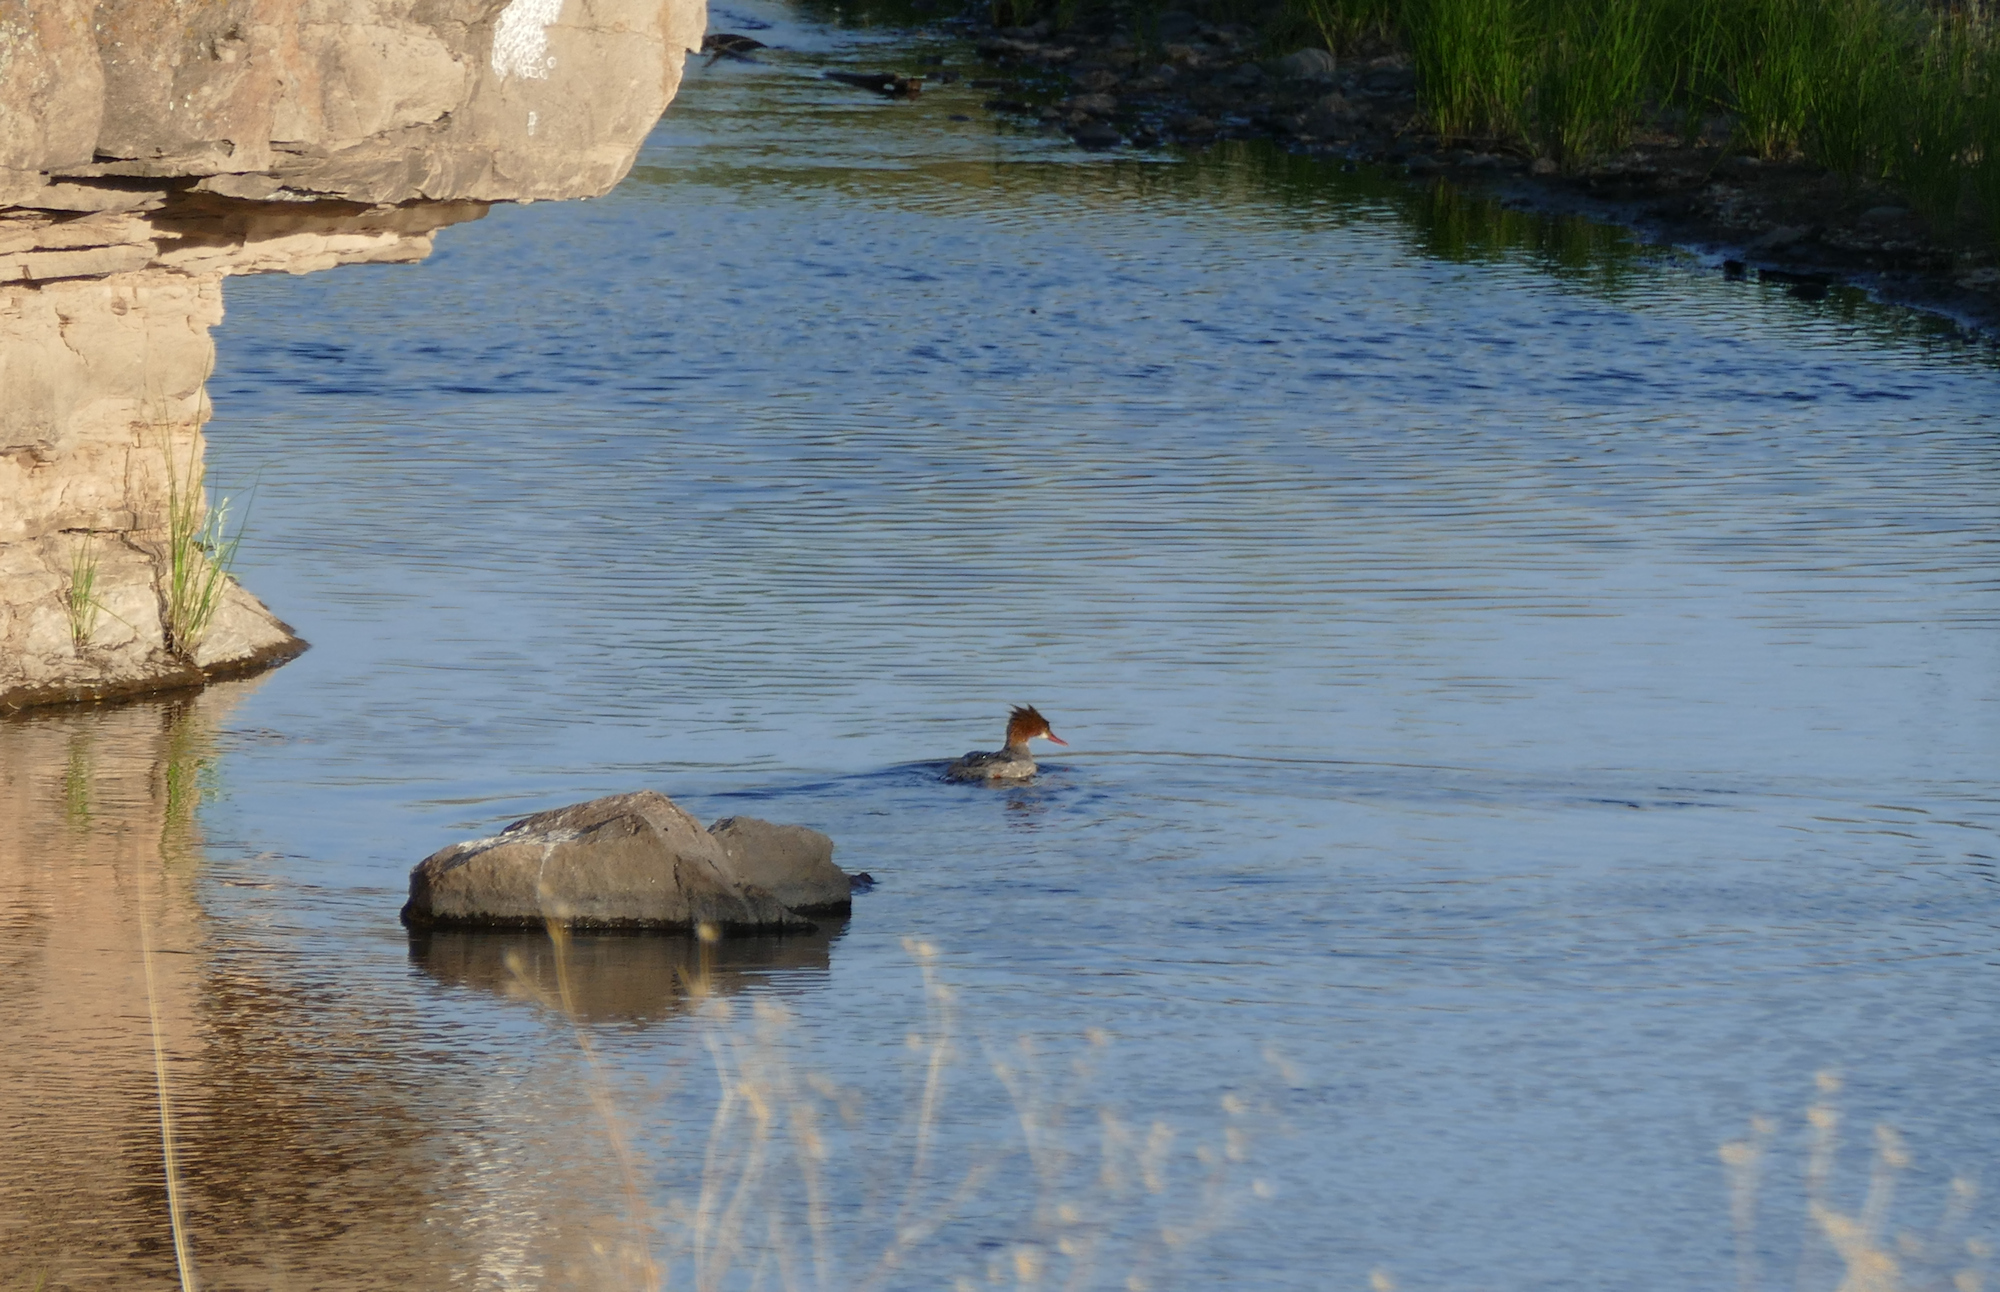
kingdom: Animalia
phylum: Chordata
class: Aves
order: Anseriformes
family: Anatidae
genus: Mergus
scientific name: Mergus merganser
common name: Common merganser
